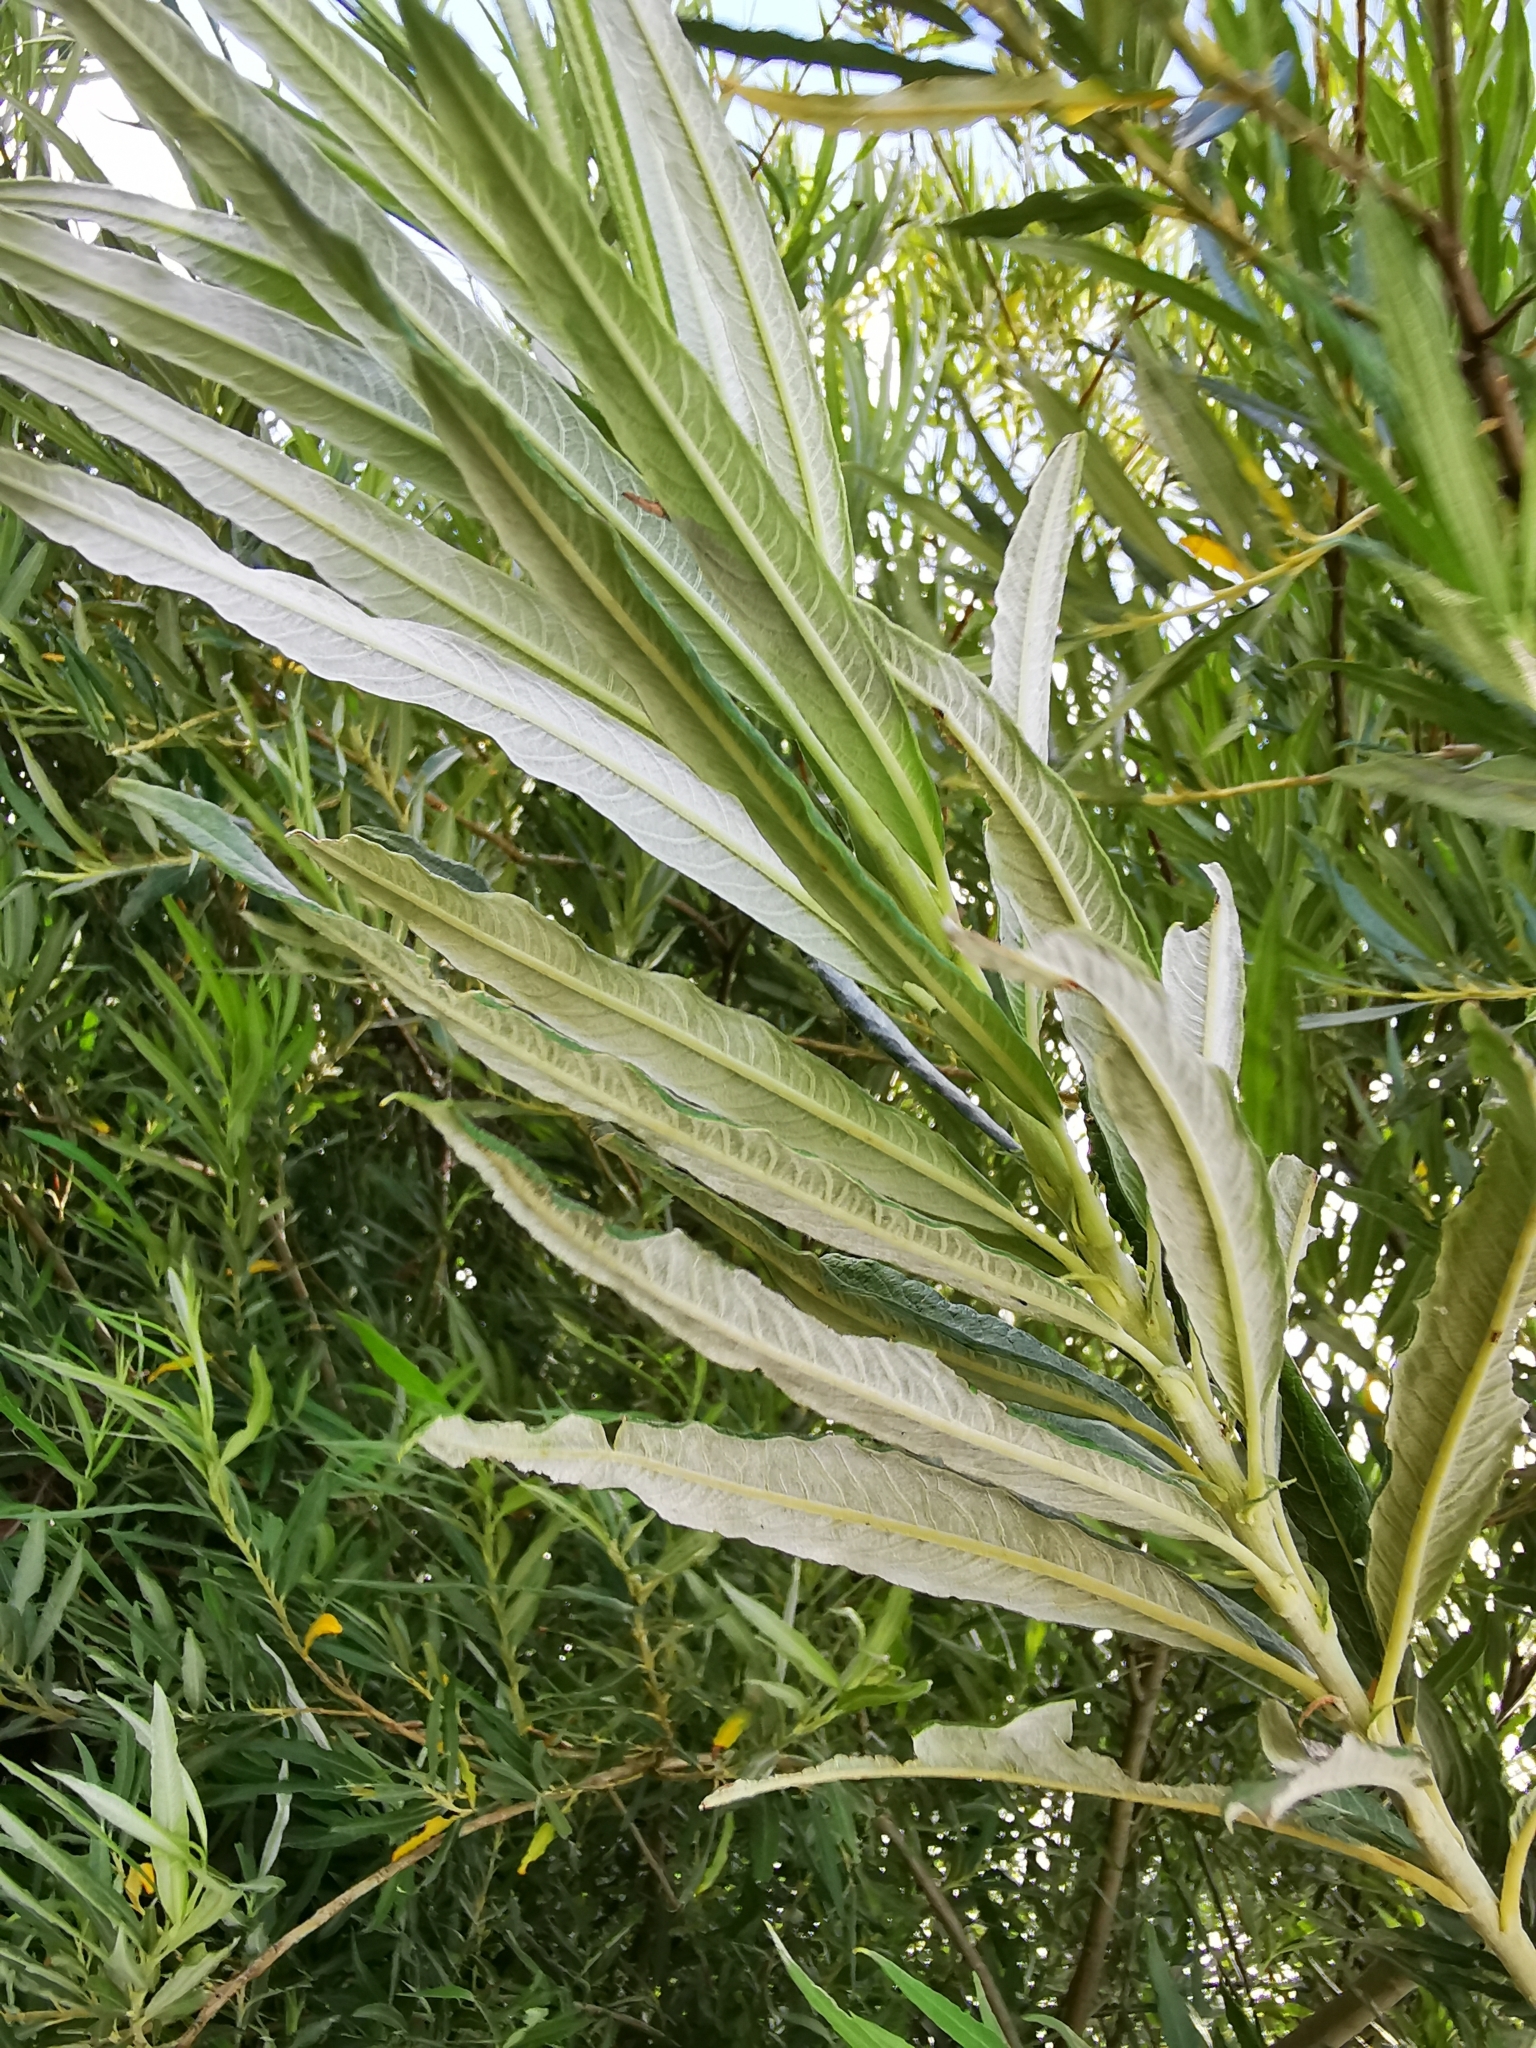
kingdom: Plantae
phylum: Tracheophyta
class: Magnoliopsida
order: Malpighiales
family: Salicaceae
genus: Salix
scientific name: Salix viminalis
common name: Osier
